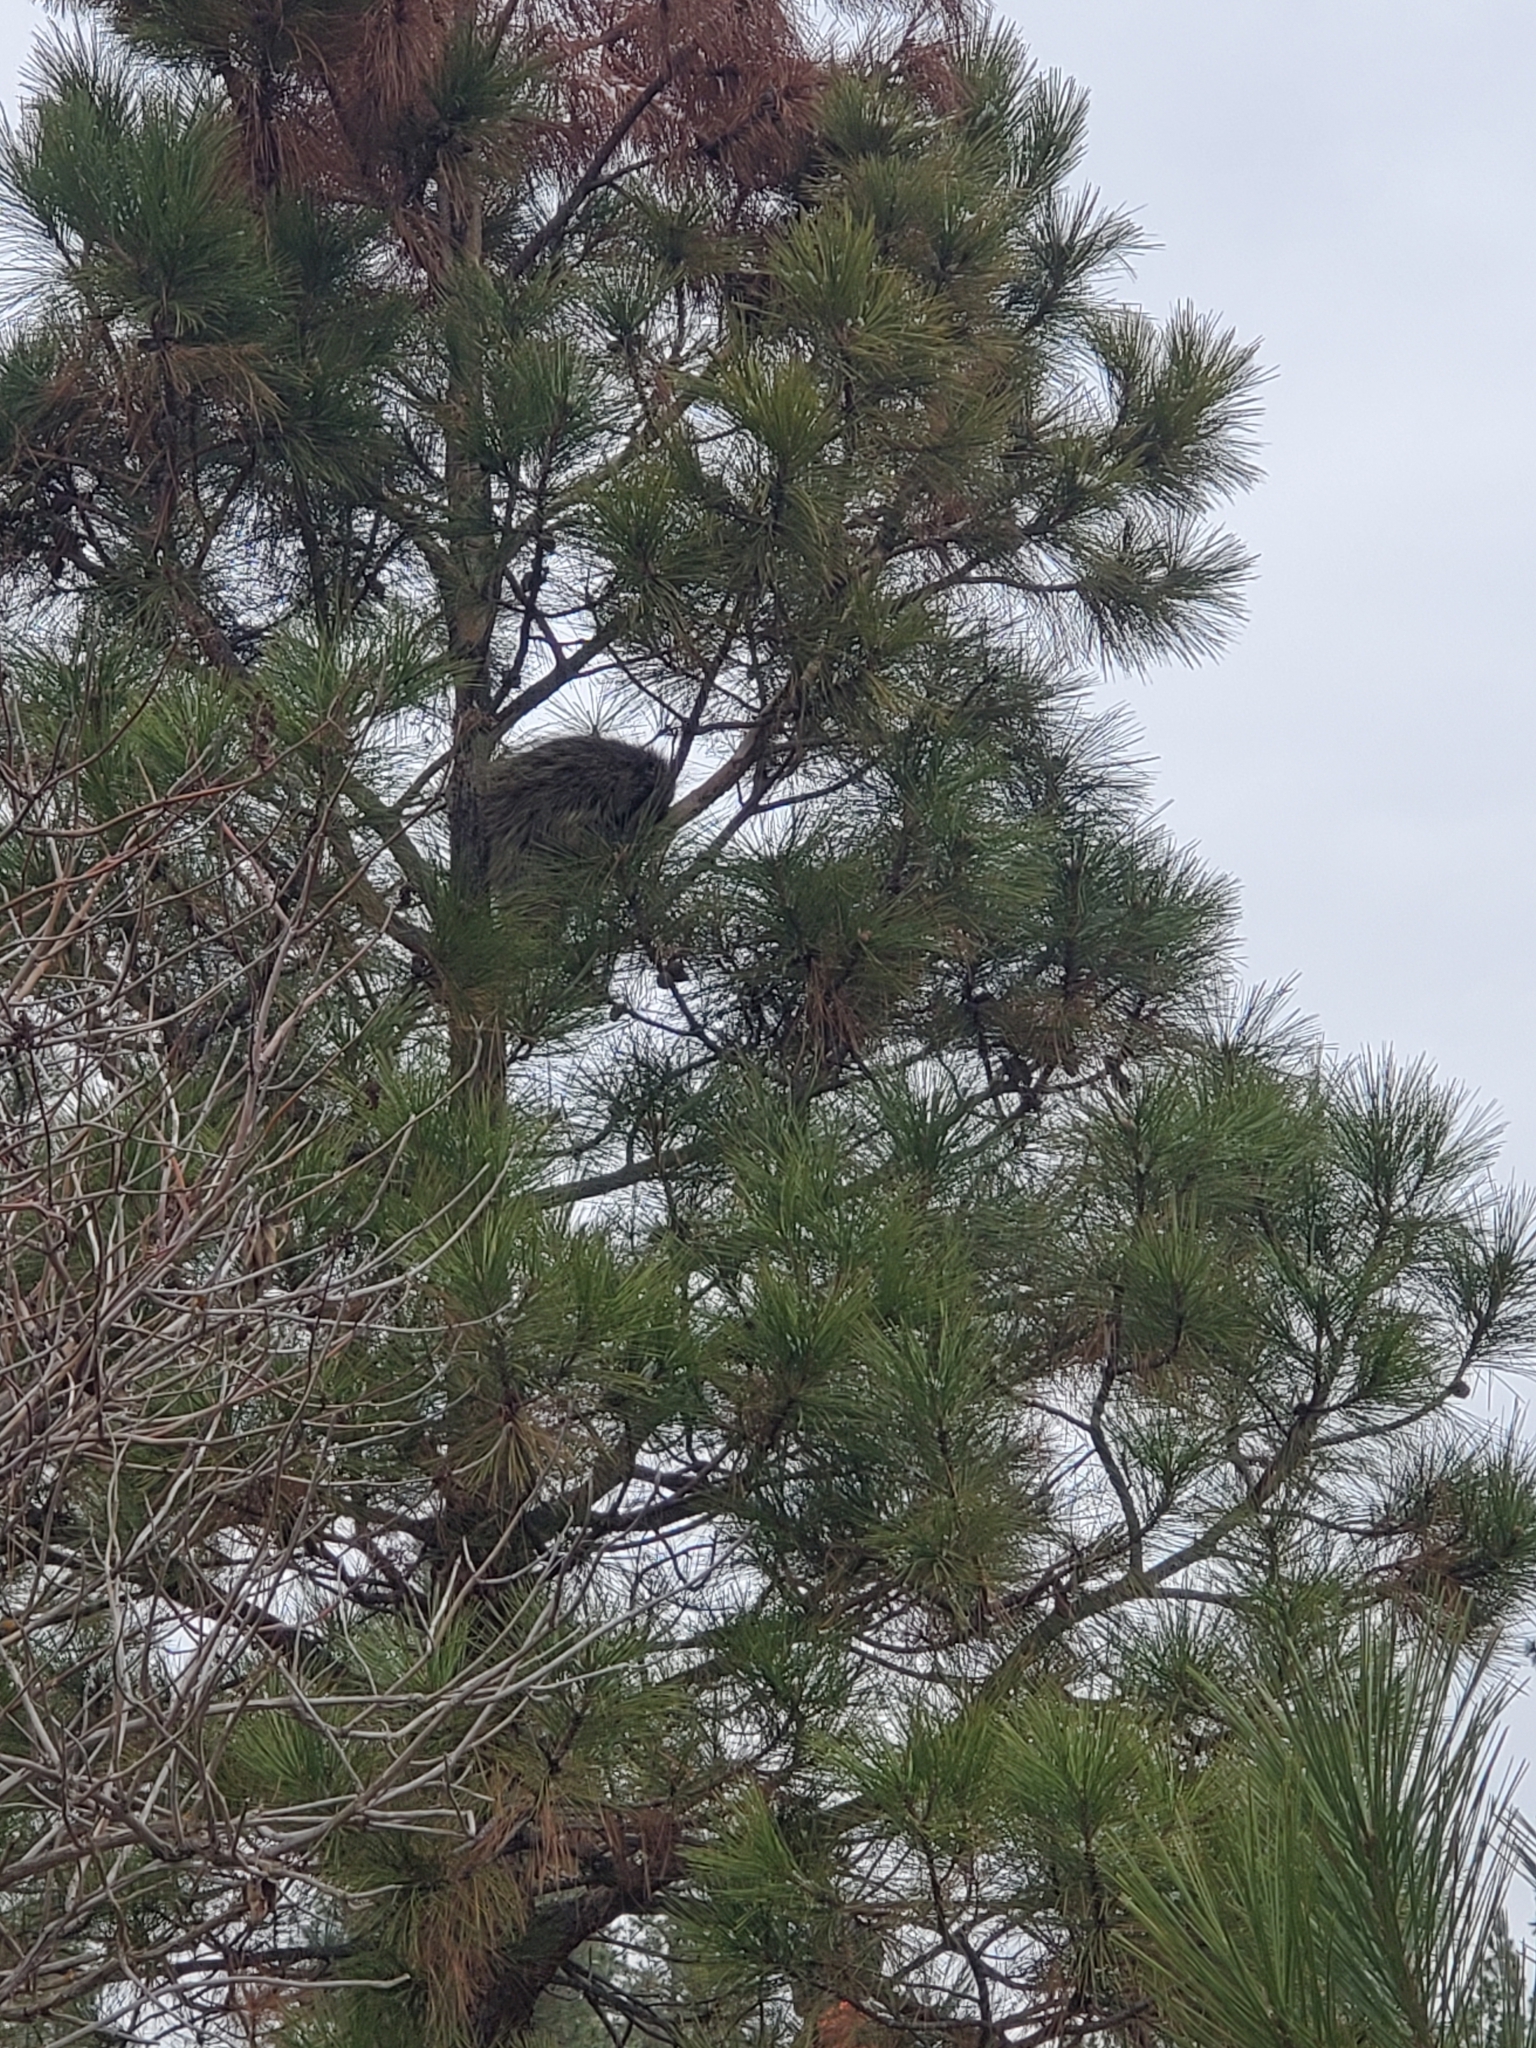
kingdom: Animalia
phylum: Chordata
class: Mammalia
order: Rodentia
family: Erethizontidae
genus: Erethizon
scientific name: Erethizon dorsatus
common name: North american porcupine
